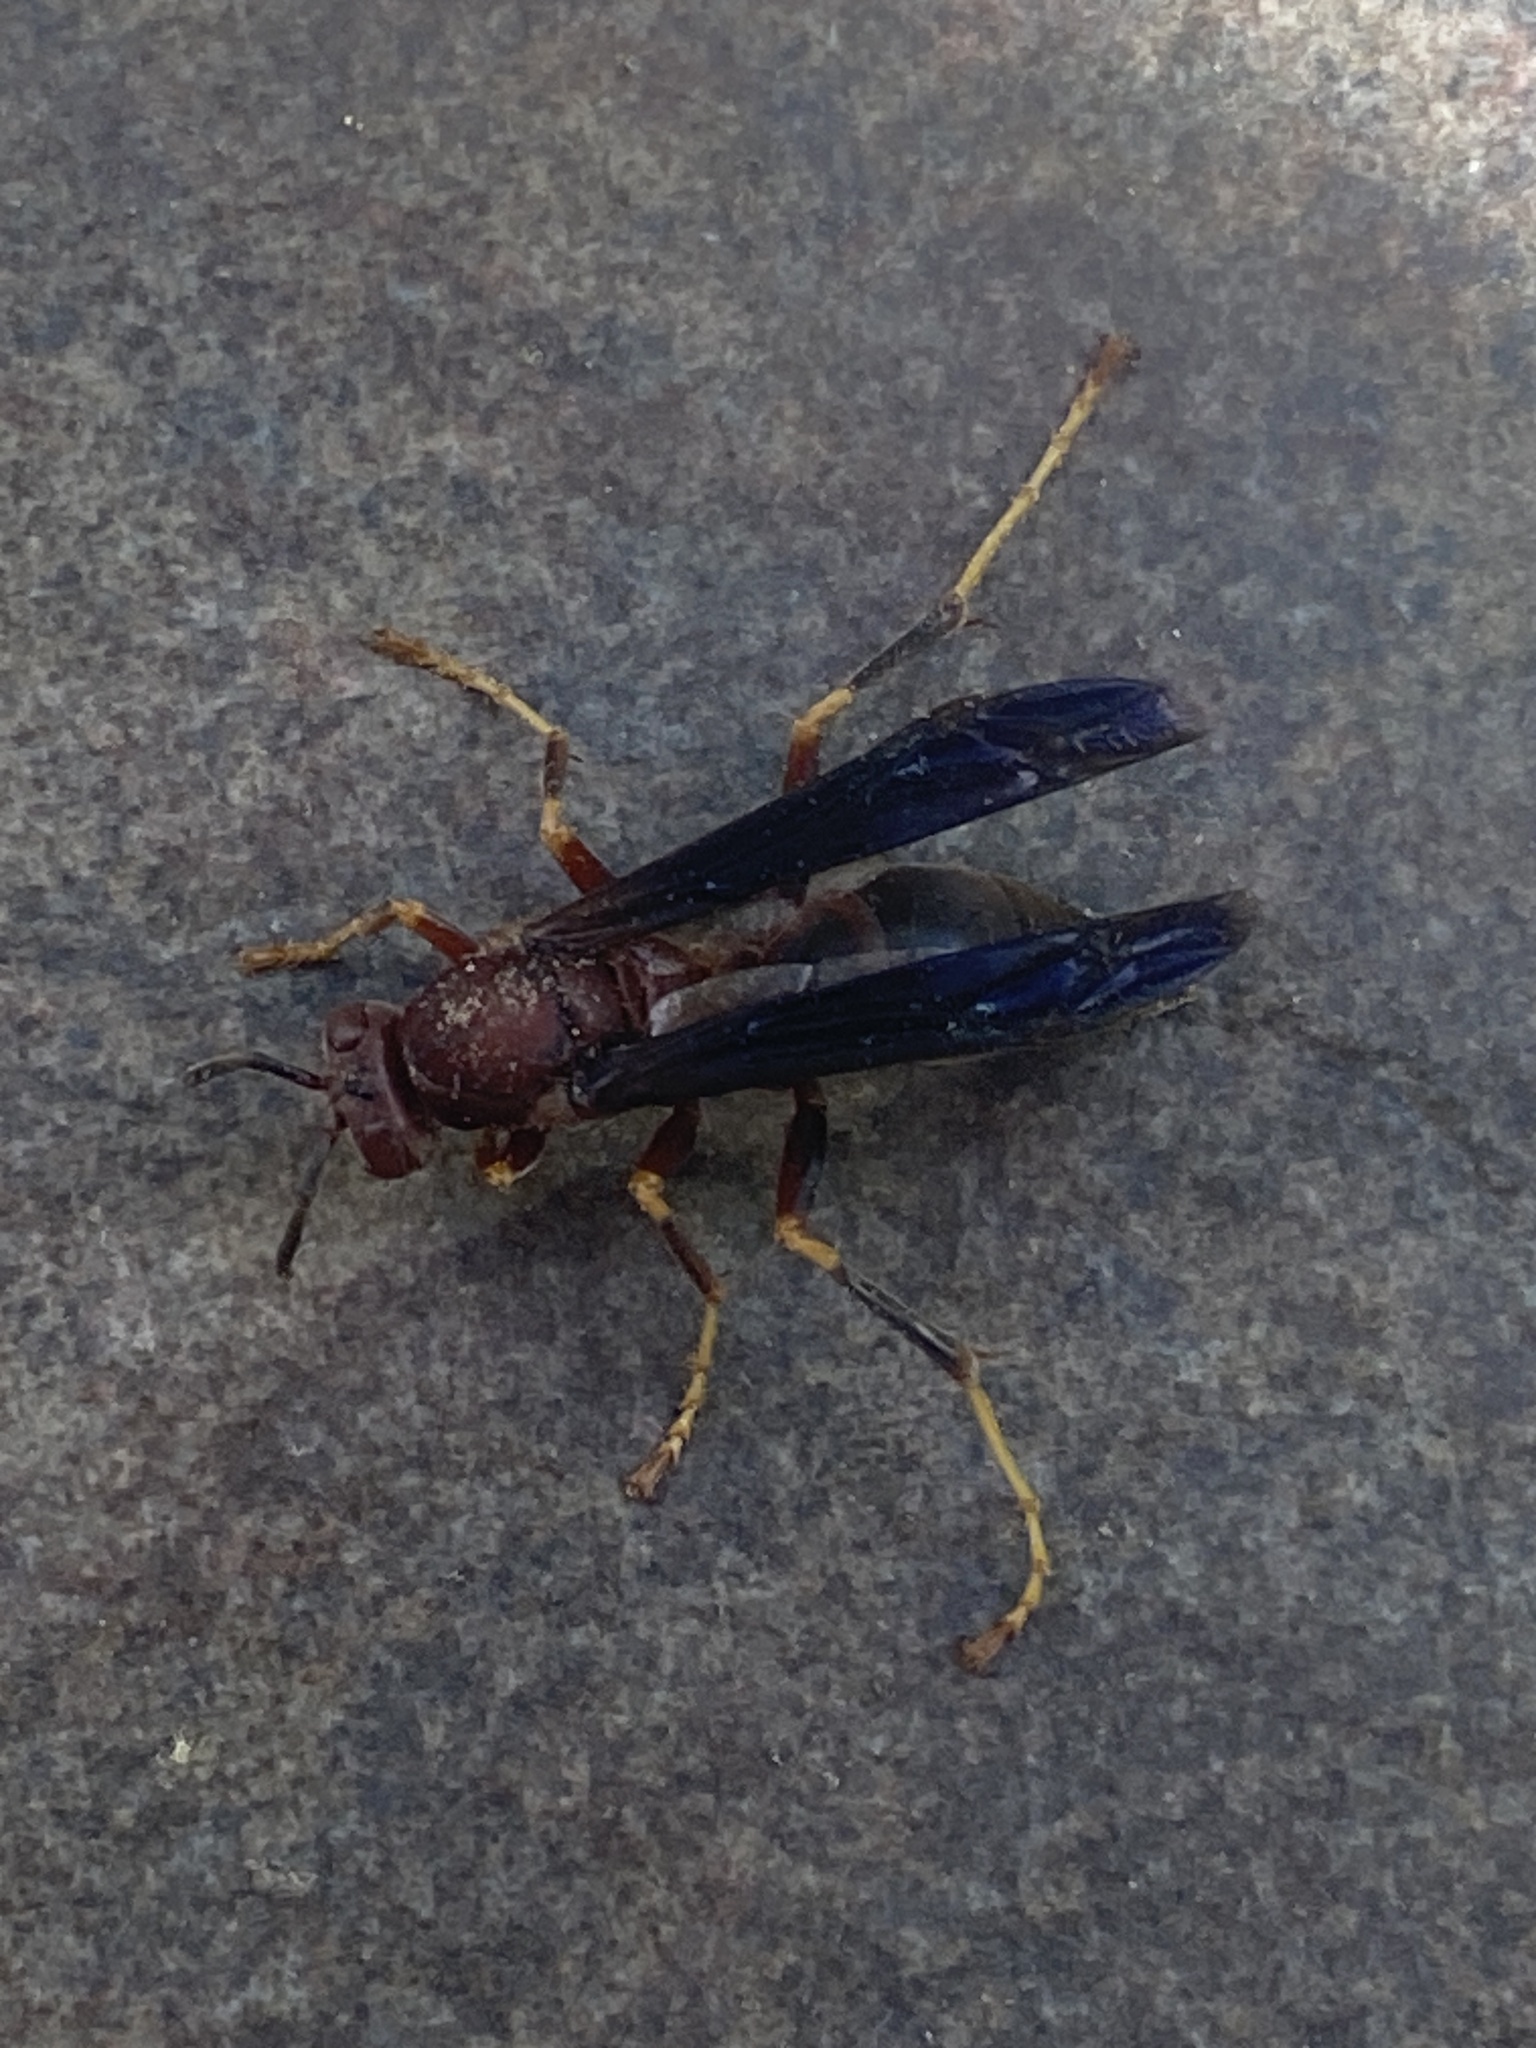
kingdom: Animalia
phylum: Arthropoda
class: Insecta
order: Hymenoptera
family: Eumenidae
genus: Polistes
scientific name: Polistes metricus
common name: Metric paper wasp
